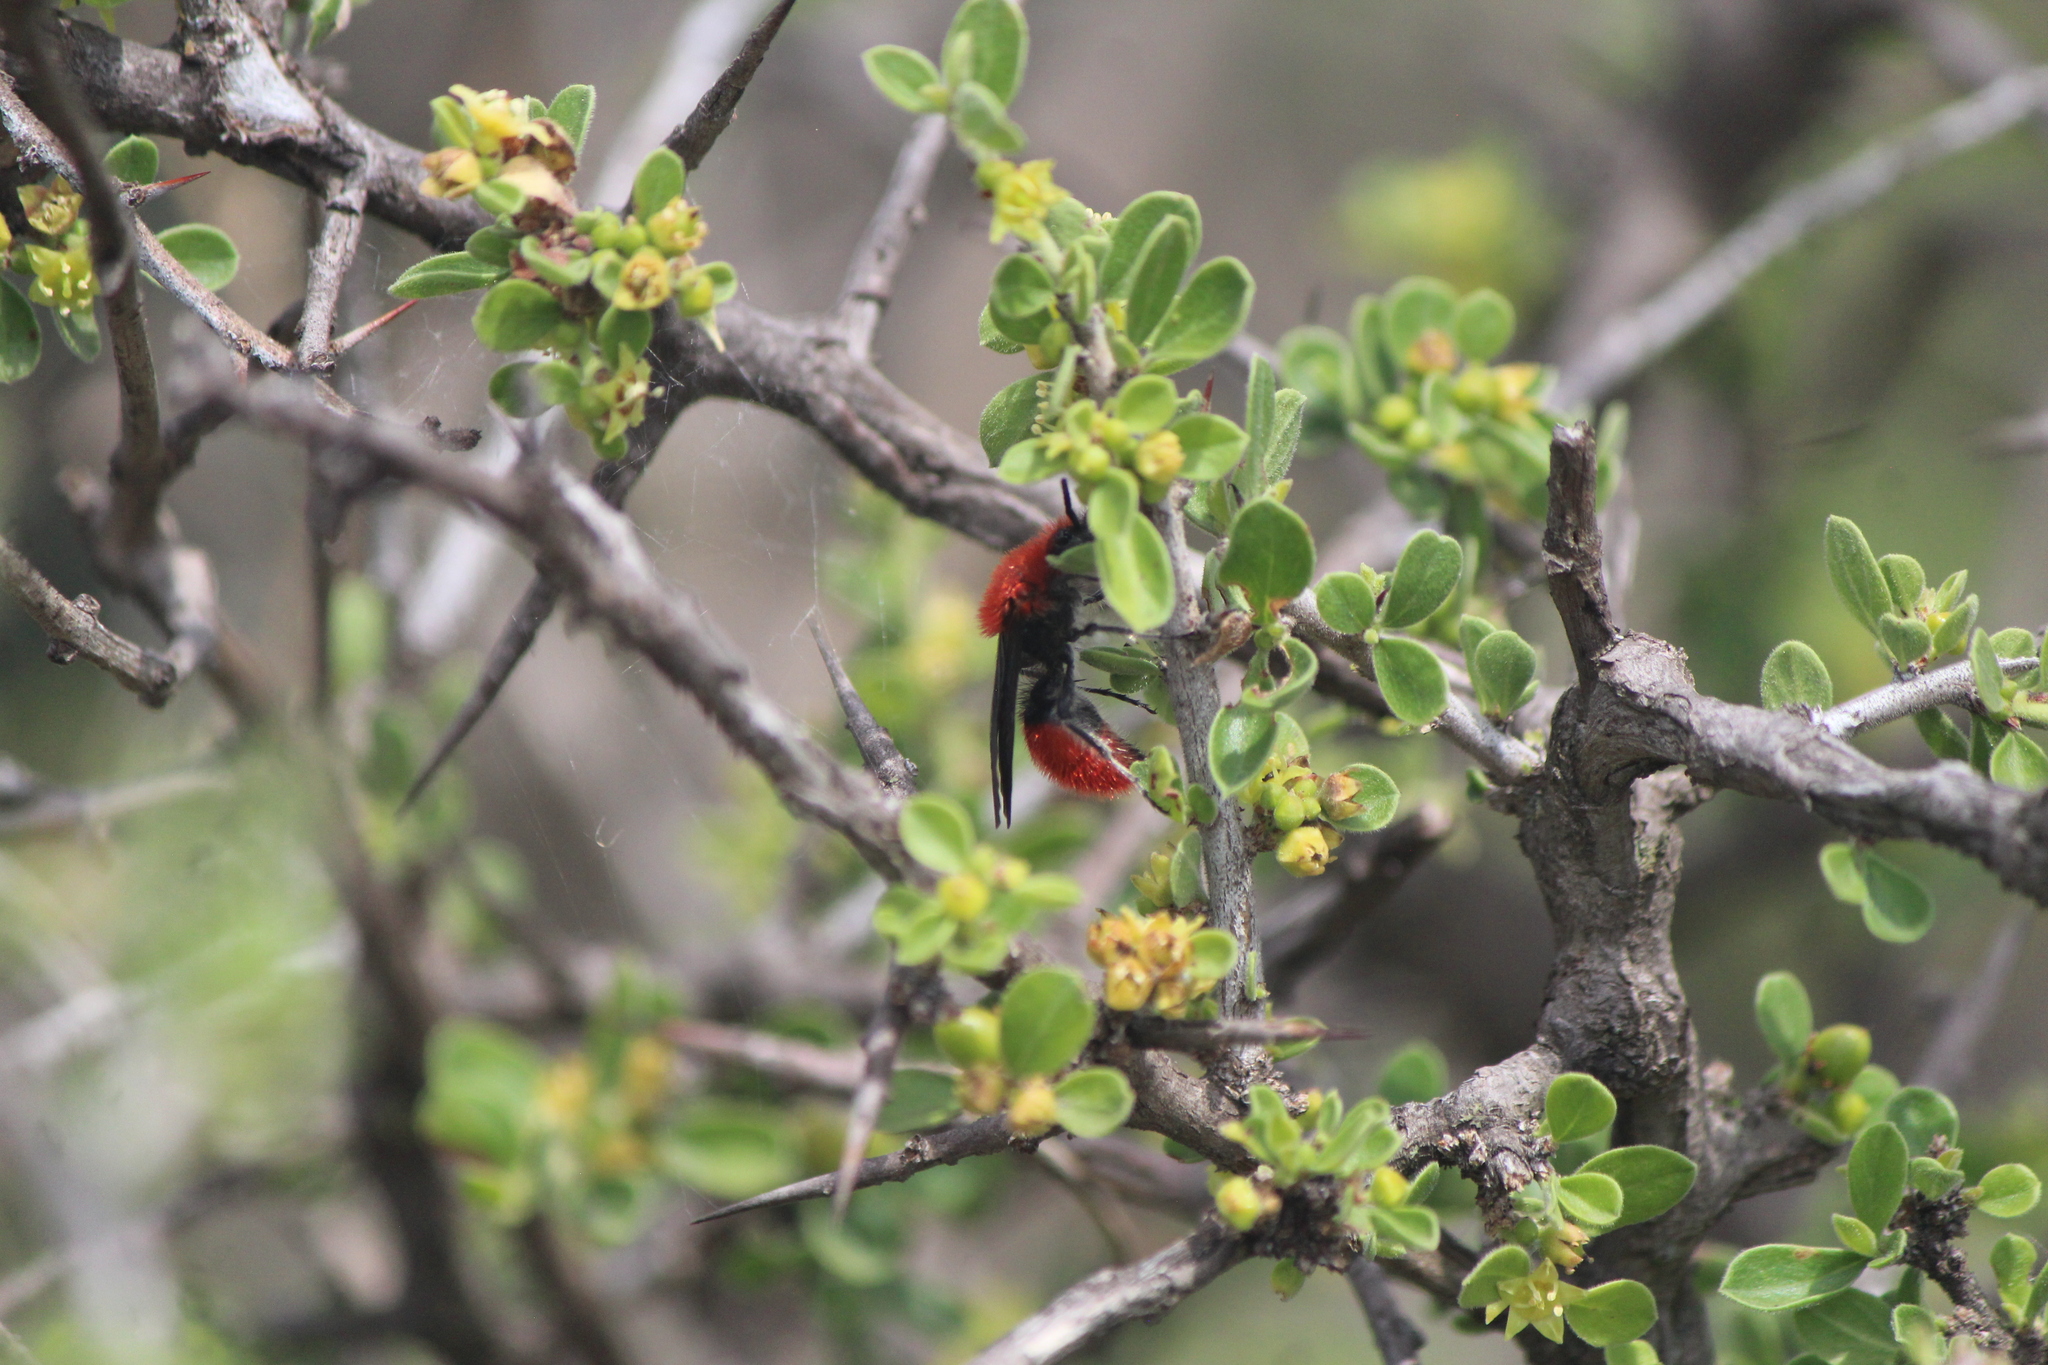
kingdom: Animalia
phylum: Arthropoda
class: Insecta
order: Hymenoptera
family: Mutillidae
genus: Dasymutilla
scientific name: Dasymutilla
